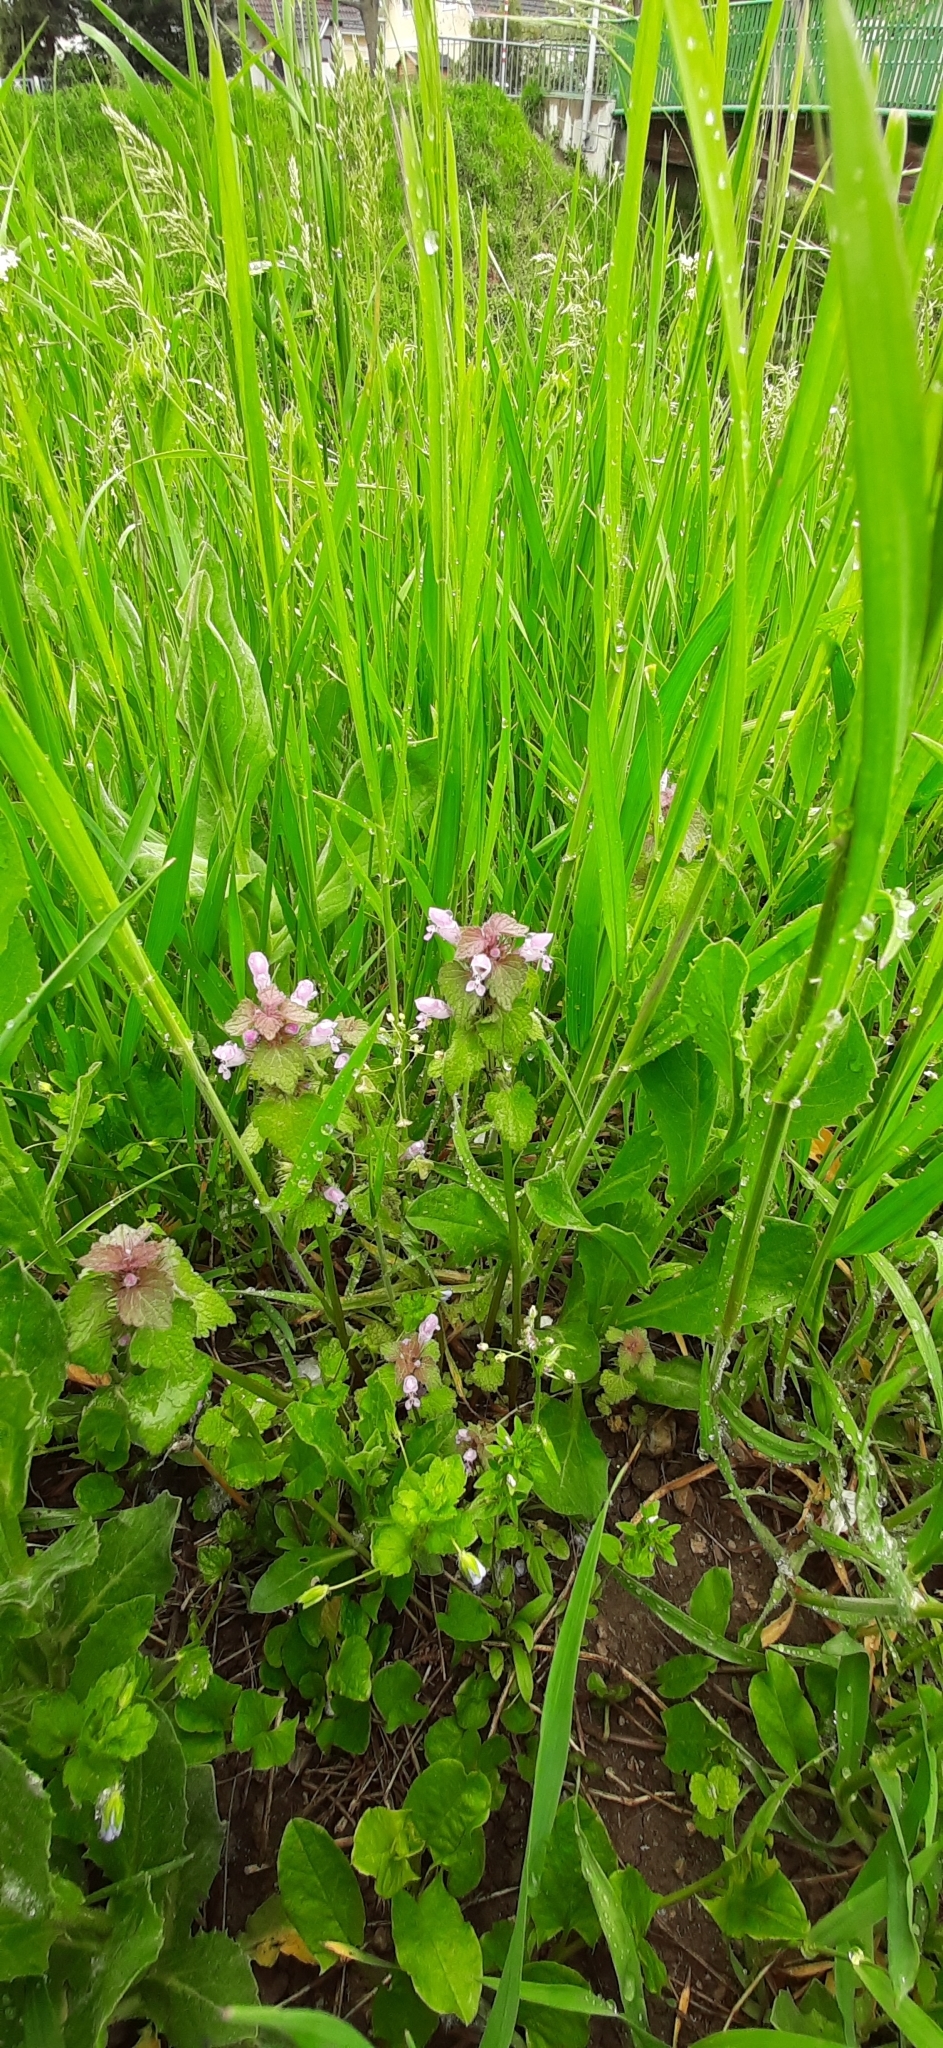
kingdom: Plantae
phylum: Tracheophyta
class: Magnoliopsida
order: Lamiales
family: Lamiaceae
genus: Lamium
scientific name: Lamium purpureum
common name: Red dead-nettle
